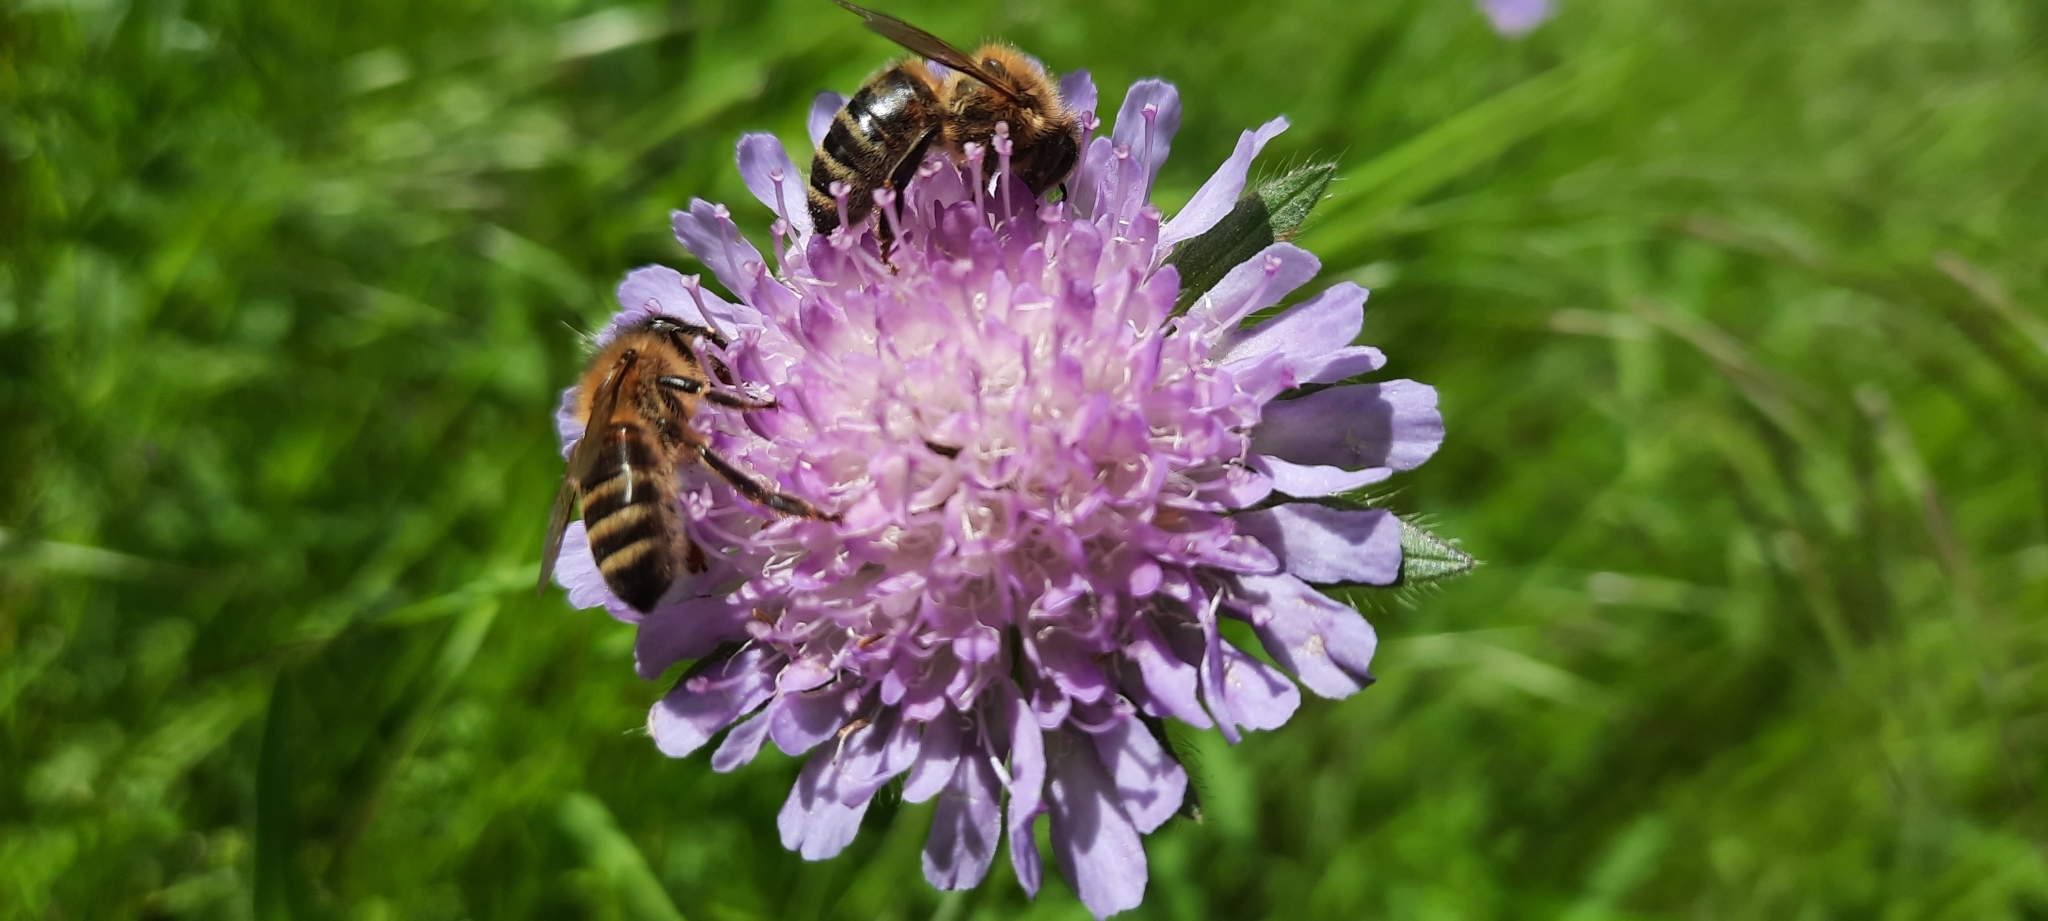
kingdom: Plantae
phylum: Tracheophyta
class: Magnoliopsida
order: Dipsacales
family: Caprifoliaceae
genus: Knautia
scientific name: Knautia arvensis
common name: Field scabiosa
